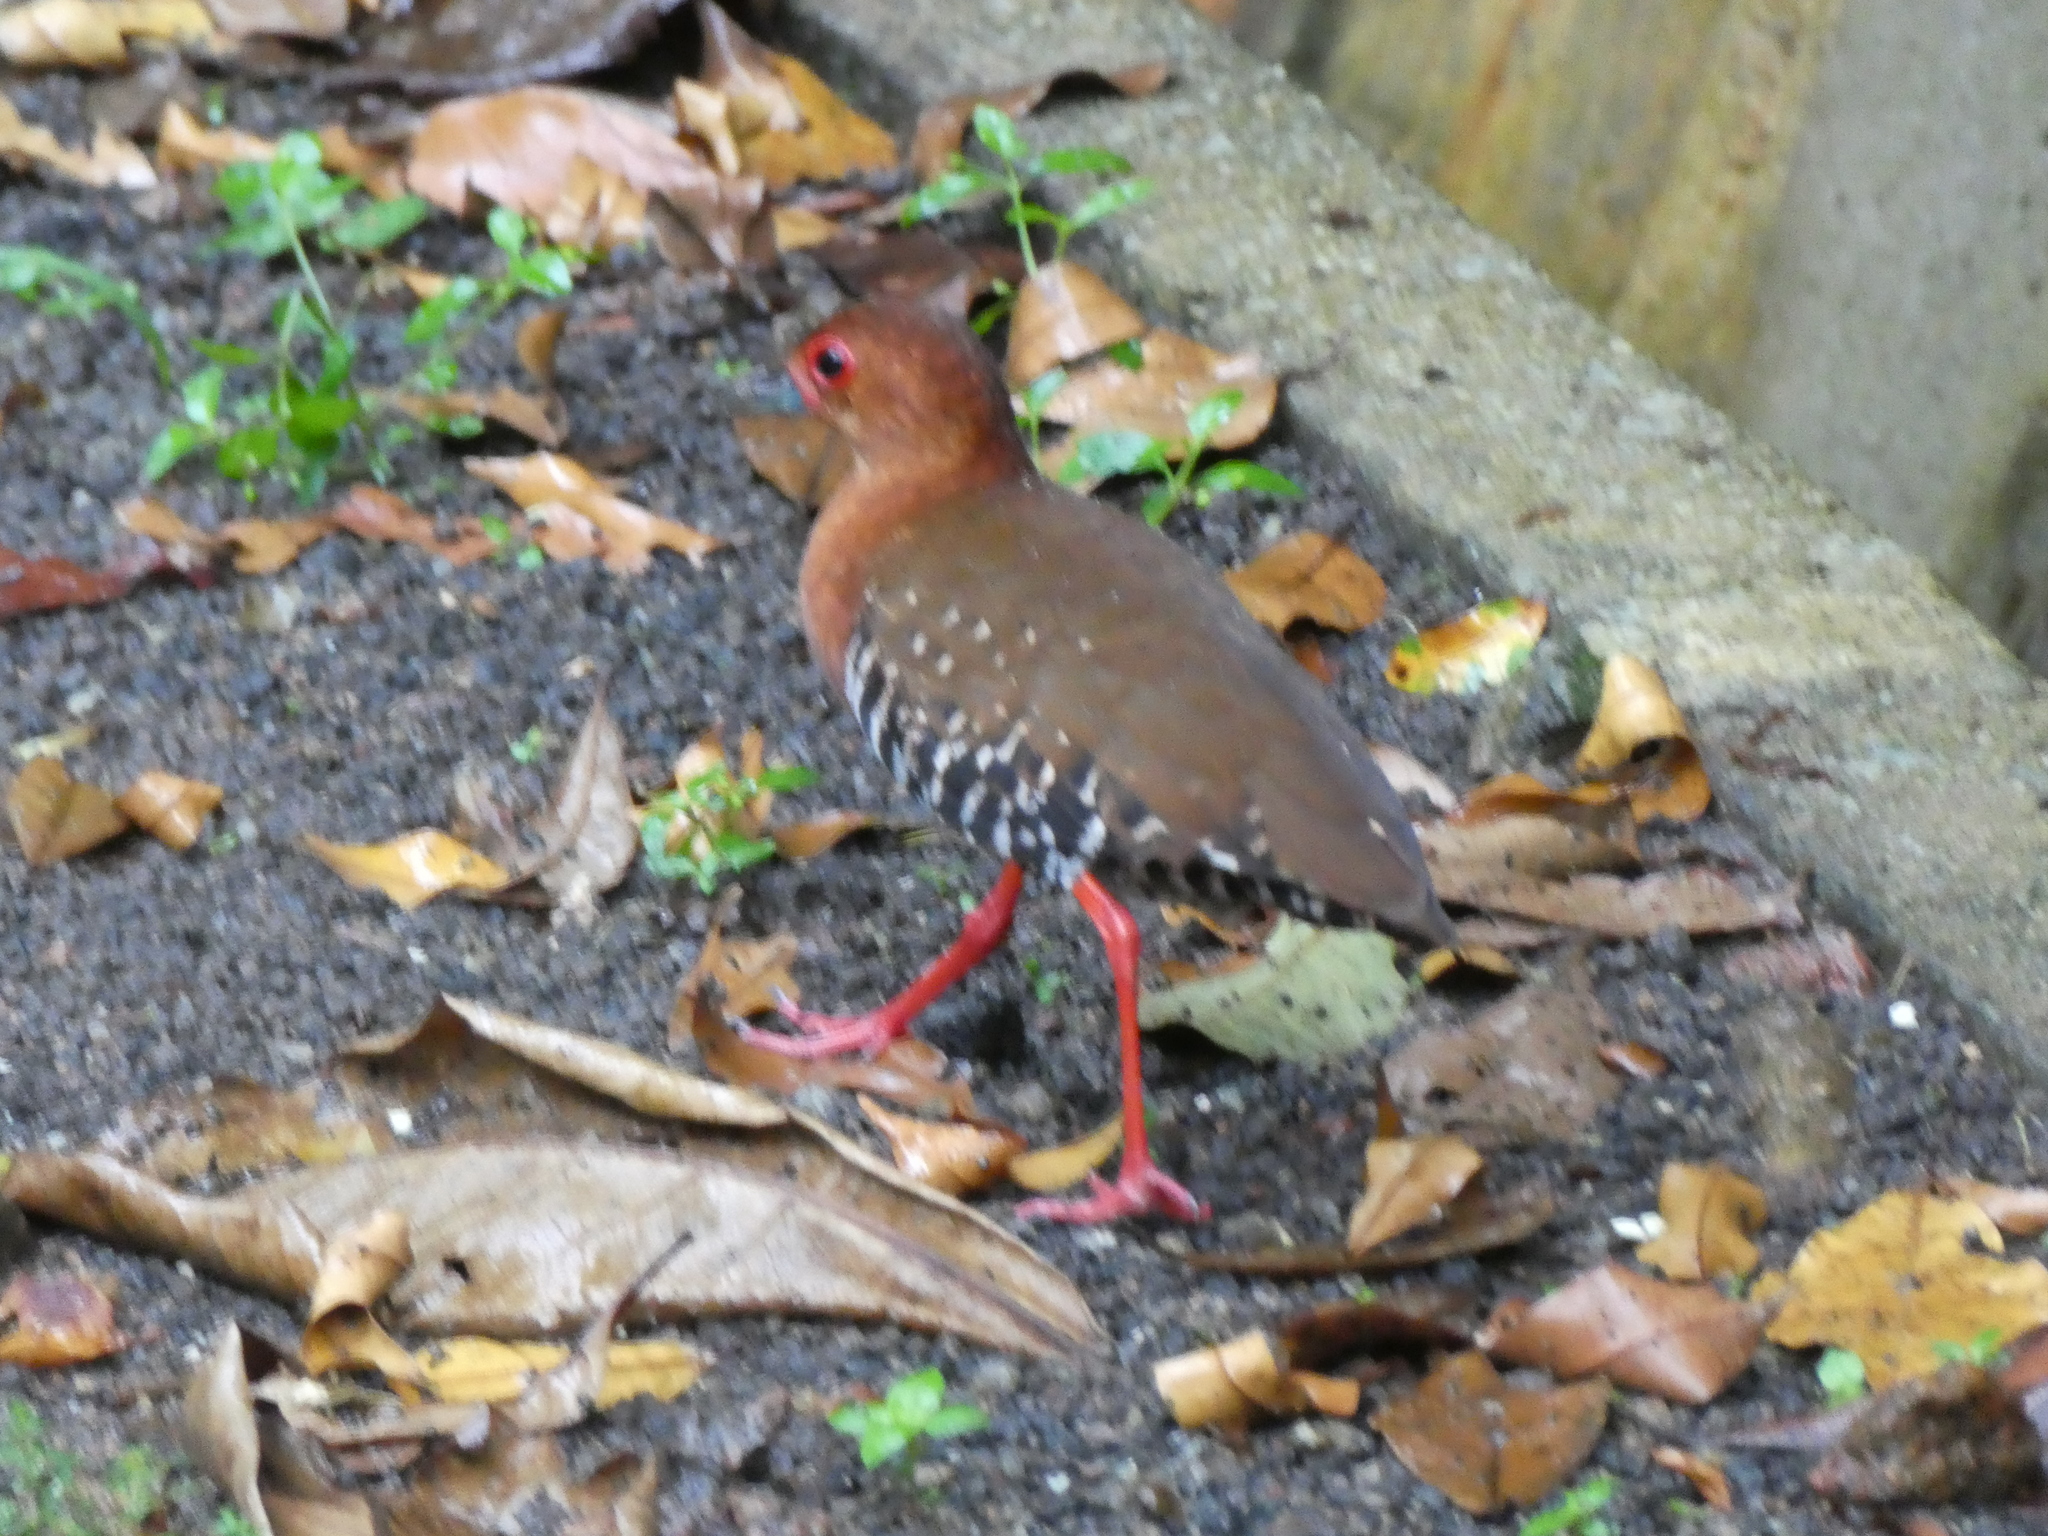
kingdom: Animalia
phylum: Chordata
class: Aves
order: Gruiformes
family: Rallidae
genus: Rallina
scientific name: Rallina fasciata
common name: Red-legged crake
